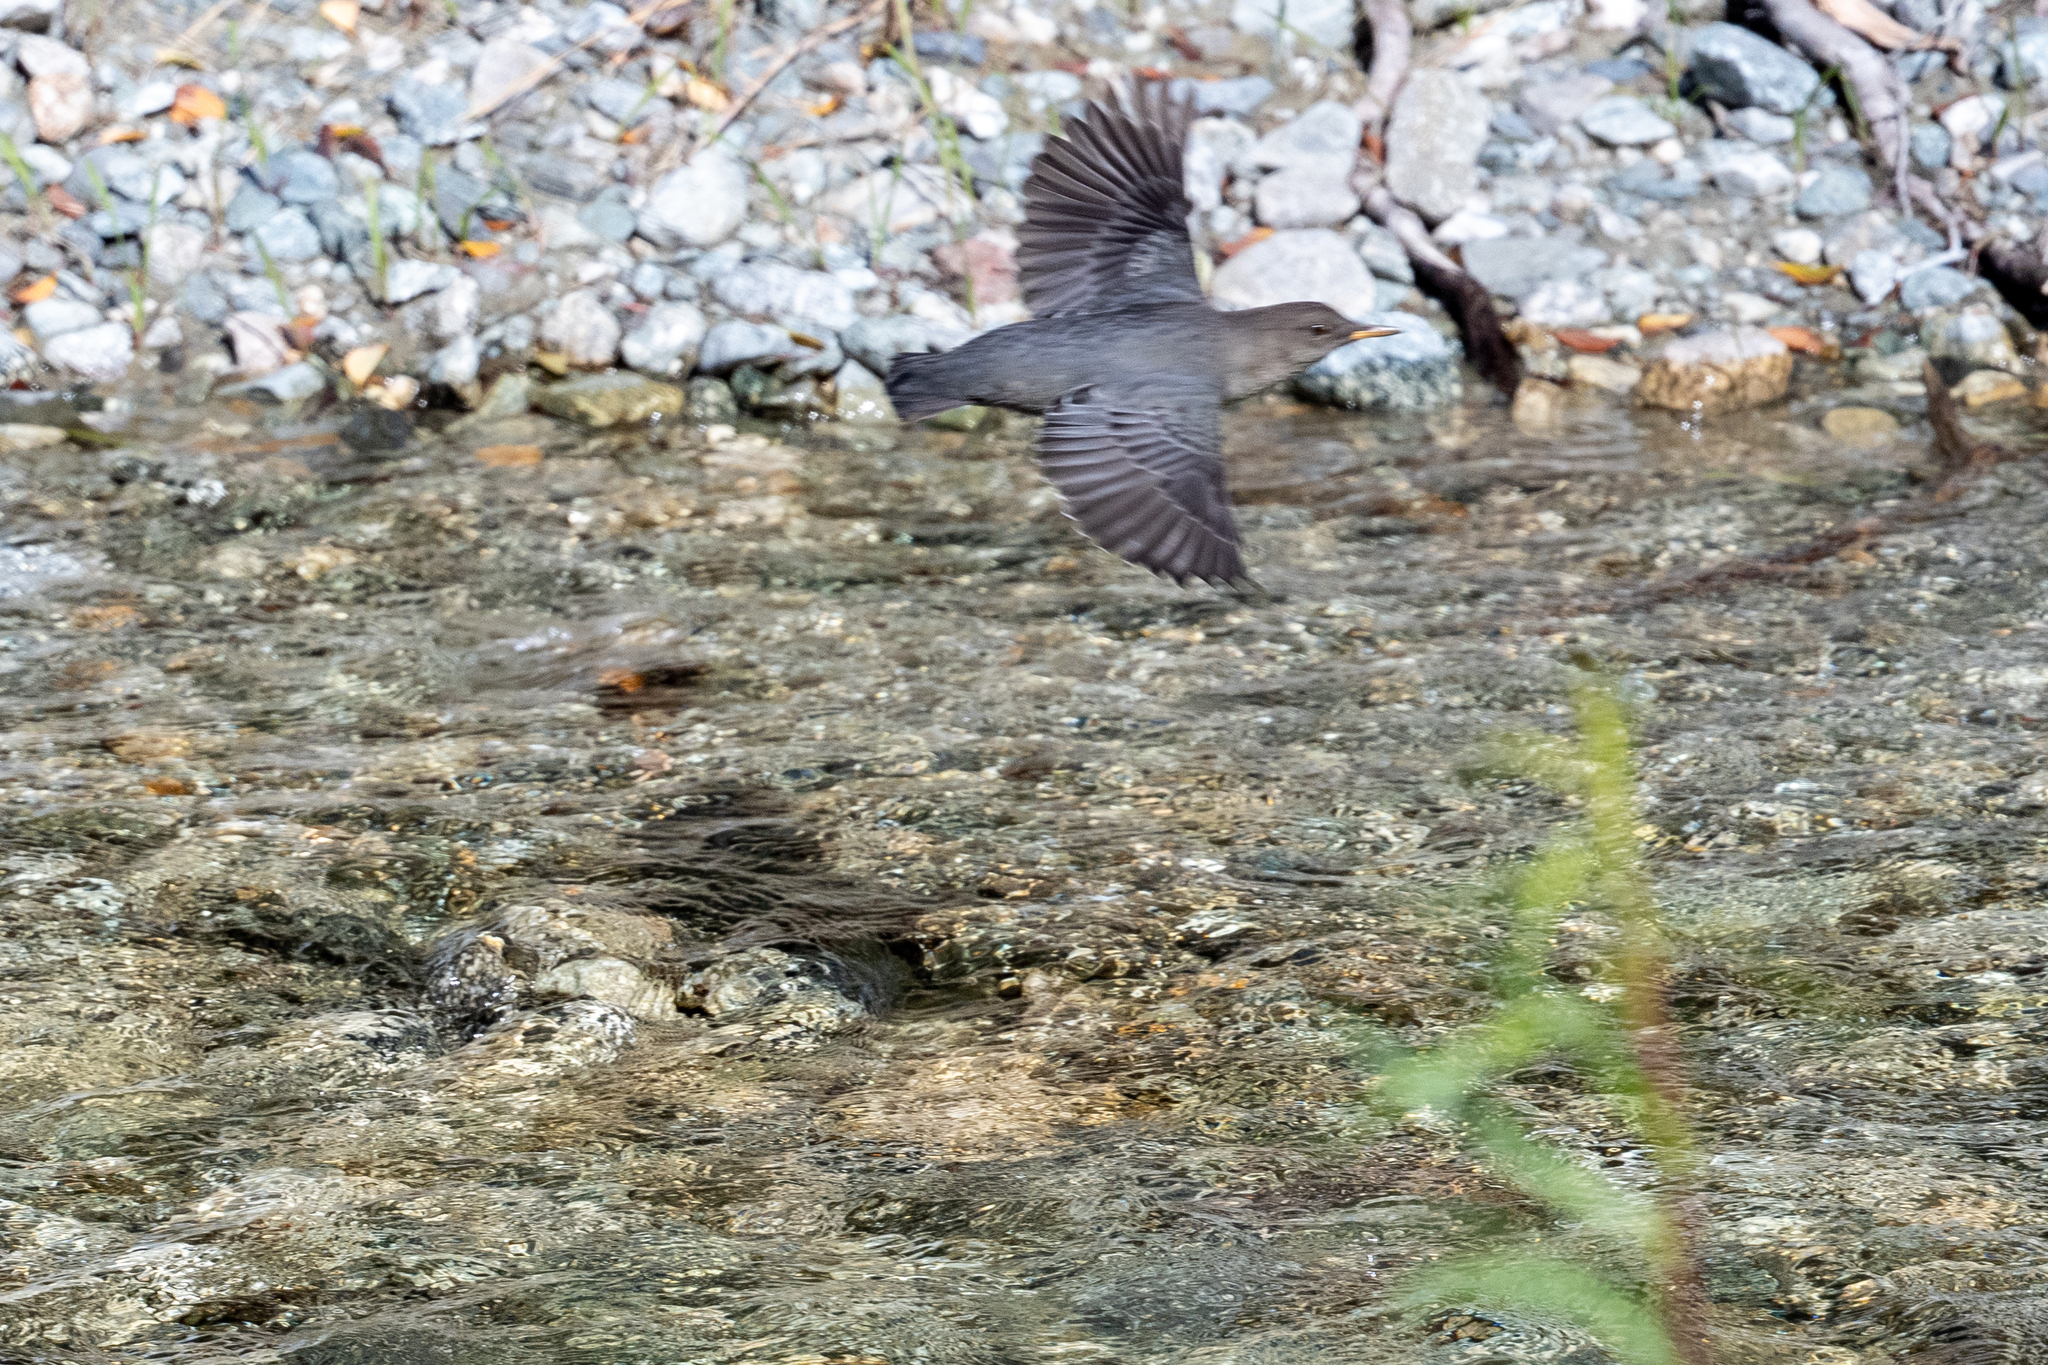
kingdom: Animalia
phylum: Chordata
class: Aves
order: Passeriformes
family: Cinclidae
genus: Cinclus
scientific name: Cinclus mexicanus
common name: American dipper
